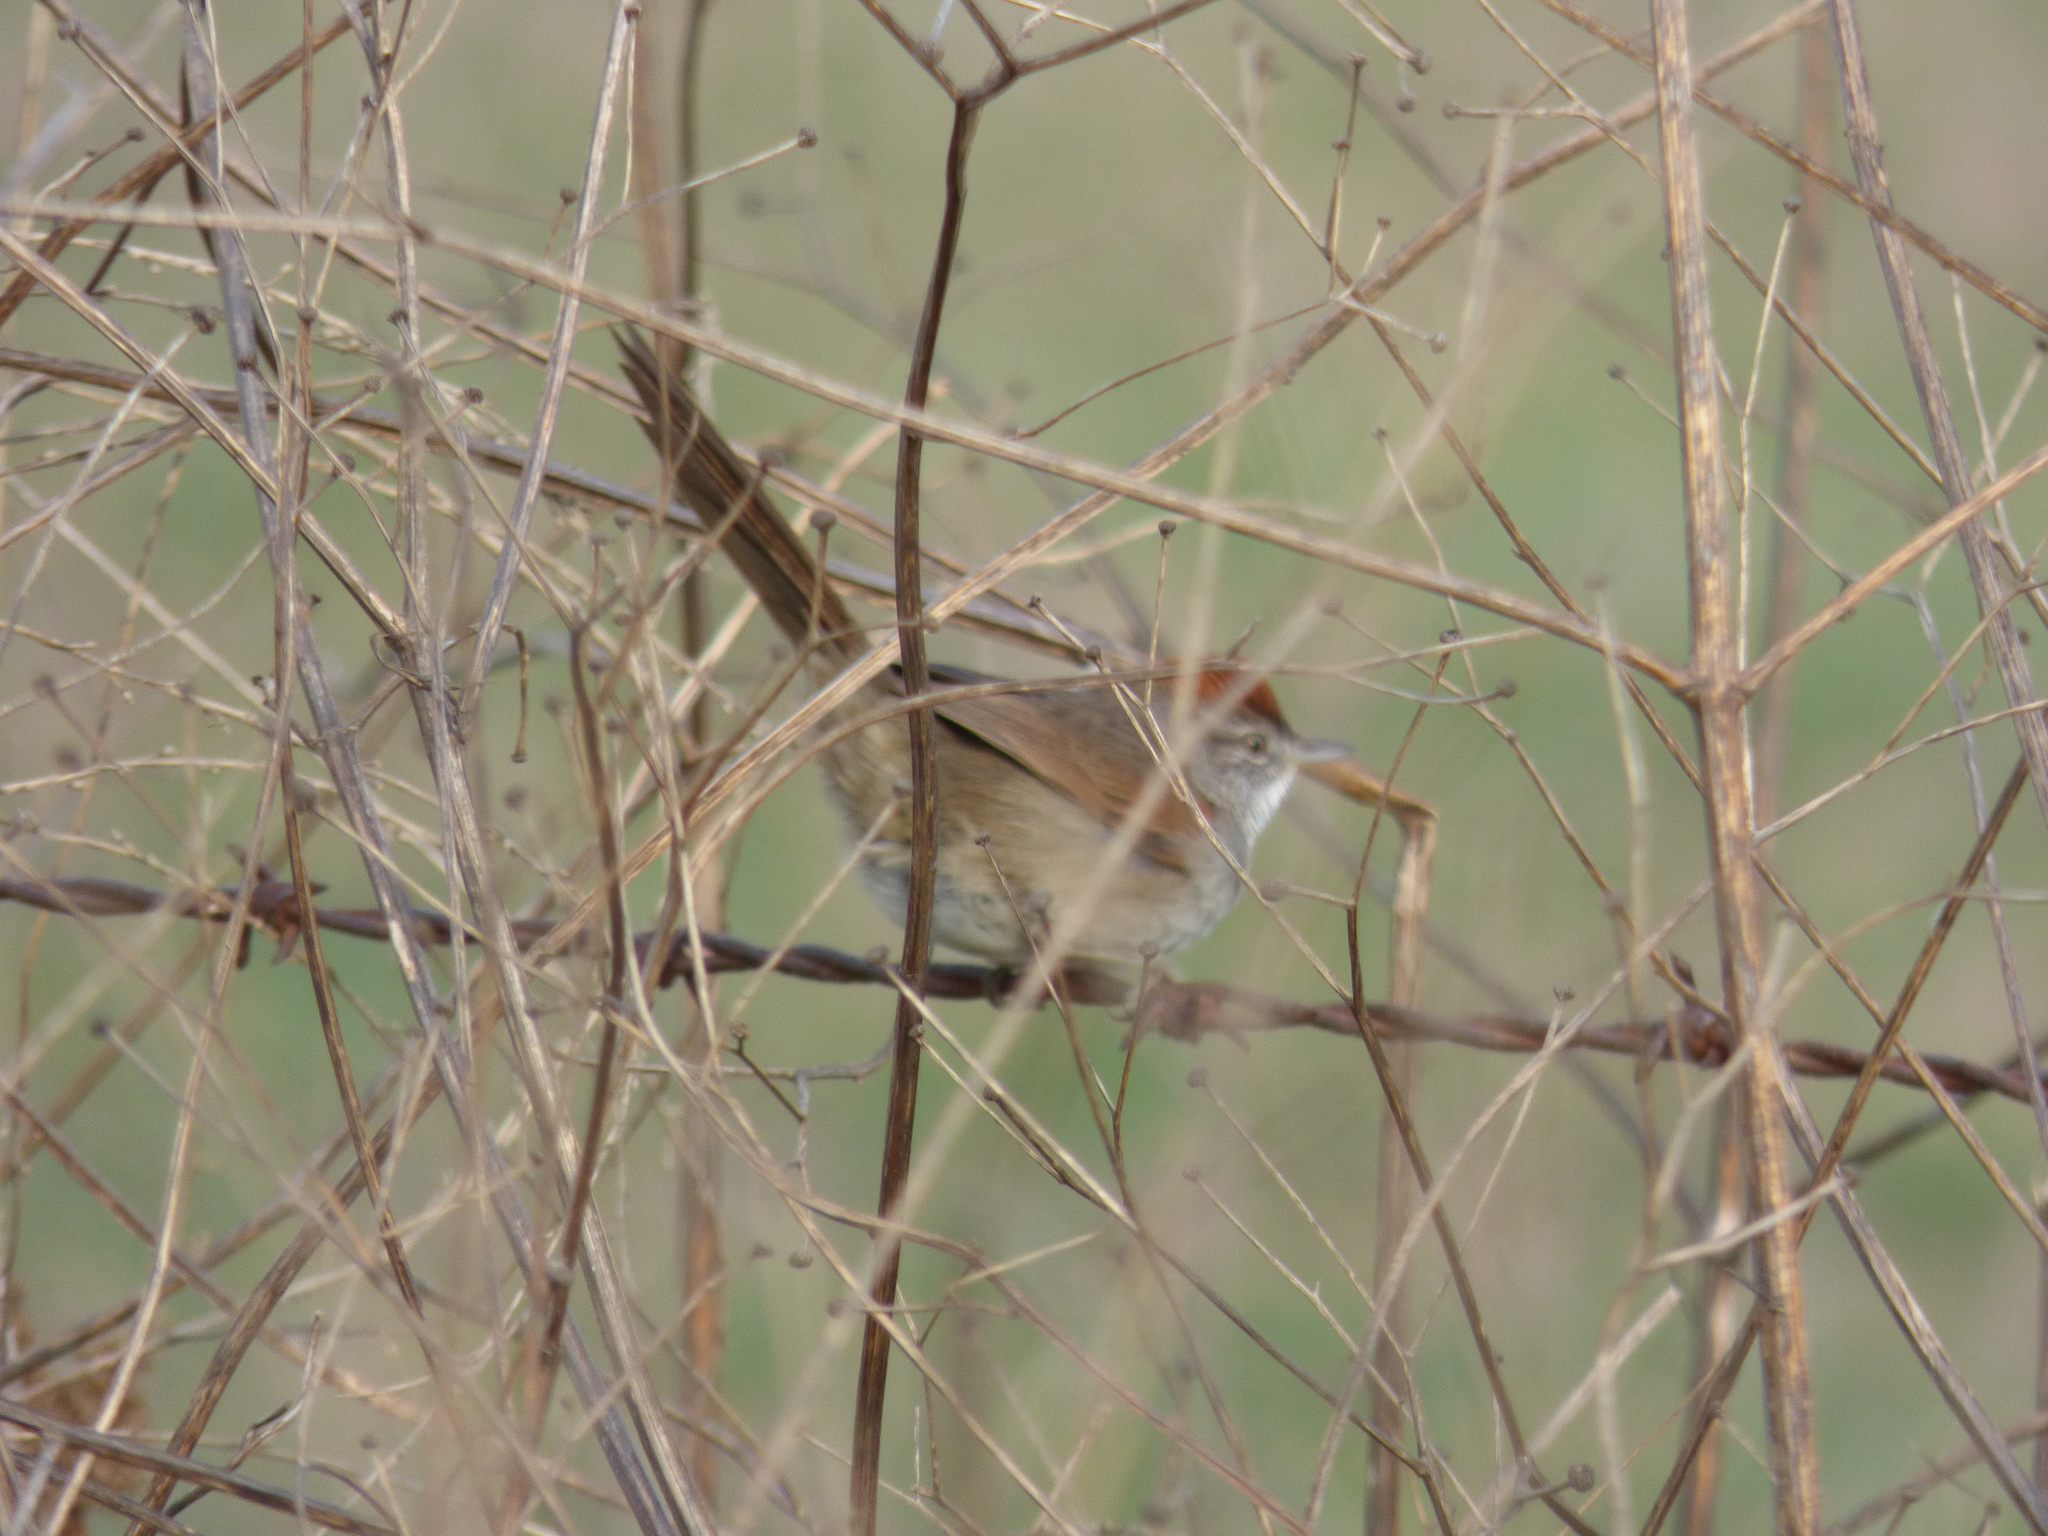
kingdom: Animalia
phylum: Chordata
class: Aves
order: Passeriformes
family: Furnariidae
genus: Synallaxis
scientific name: Synallaxis albescens
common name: Pale-breasted spinetail
